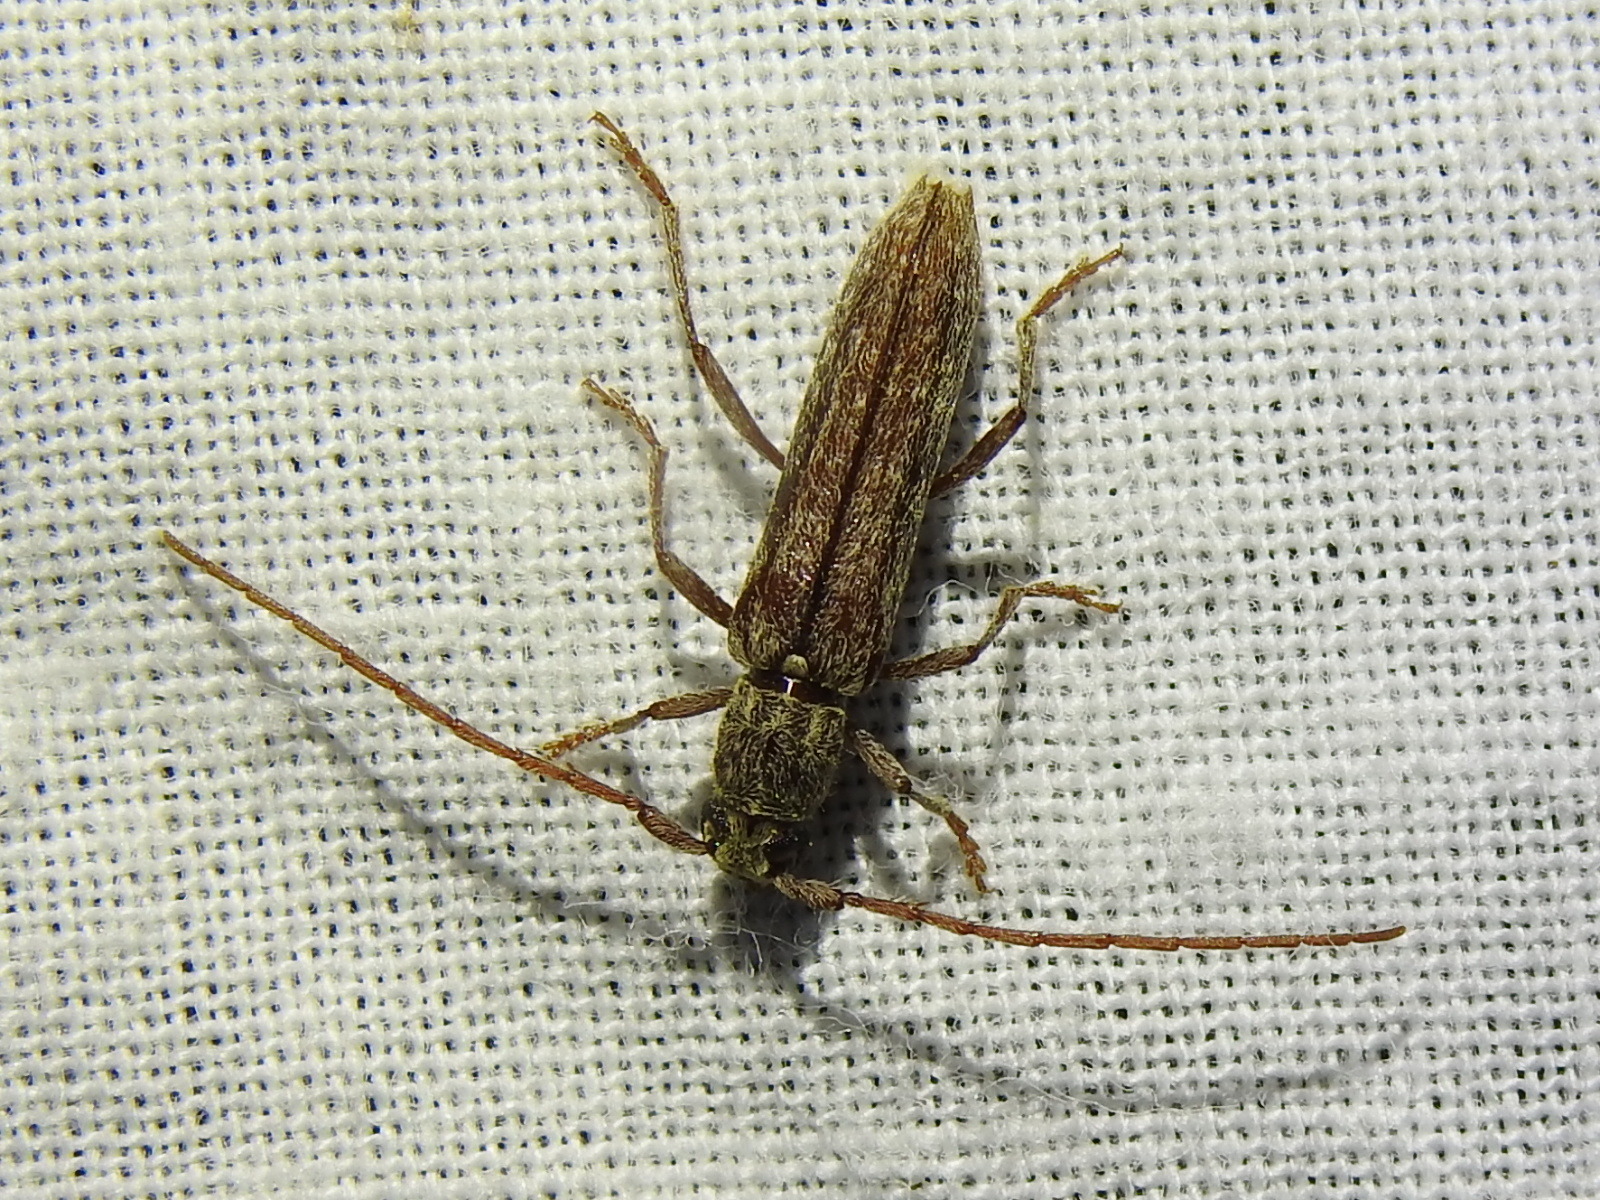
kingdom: Animalia
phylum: Arthropoda
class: Insecta
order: Coleoptera
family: Cerambycidae
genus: Anelaphus
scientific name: Anelaphus villosus
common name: Twig pruner
